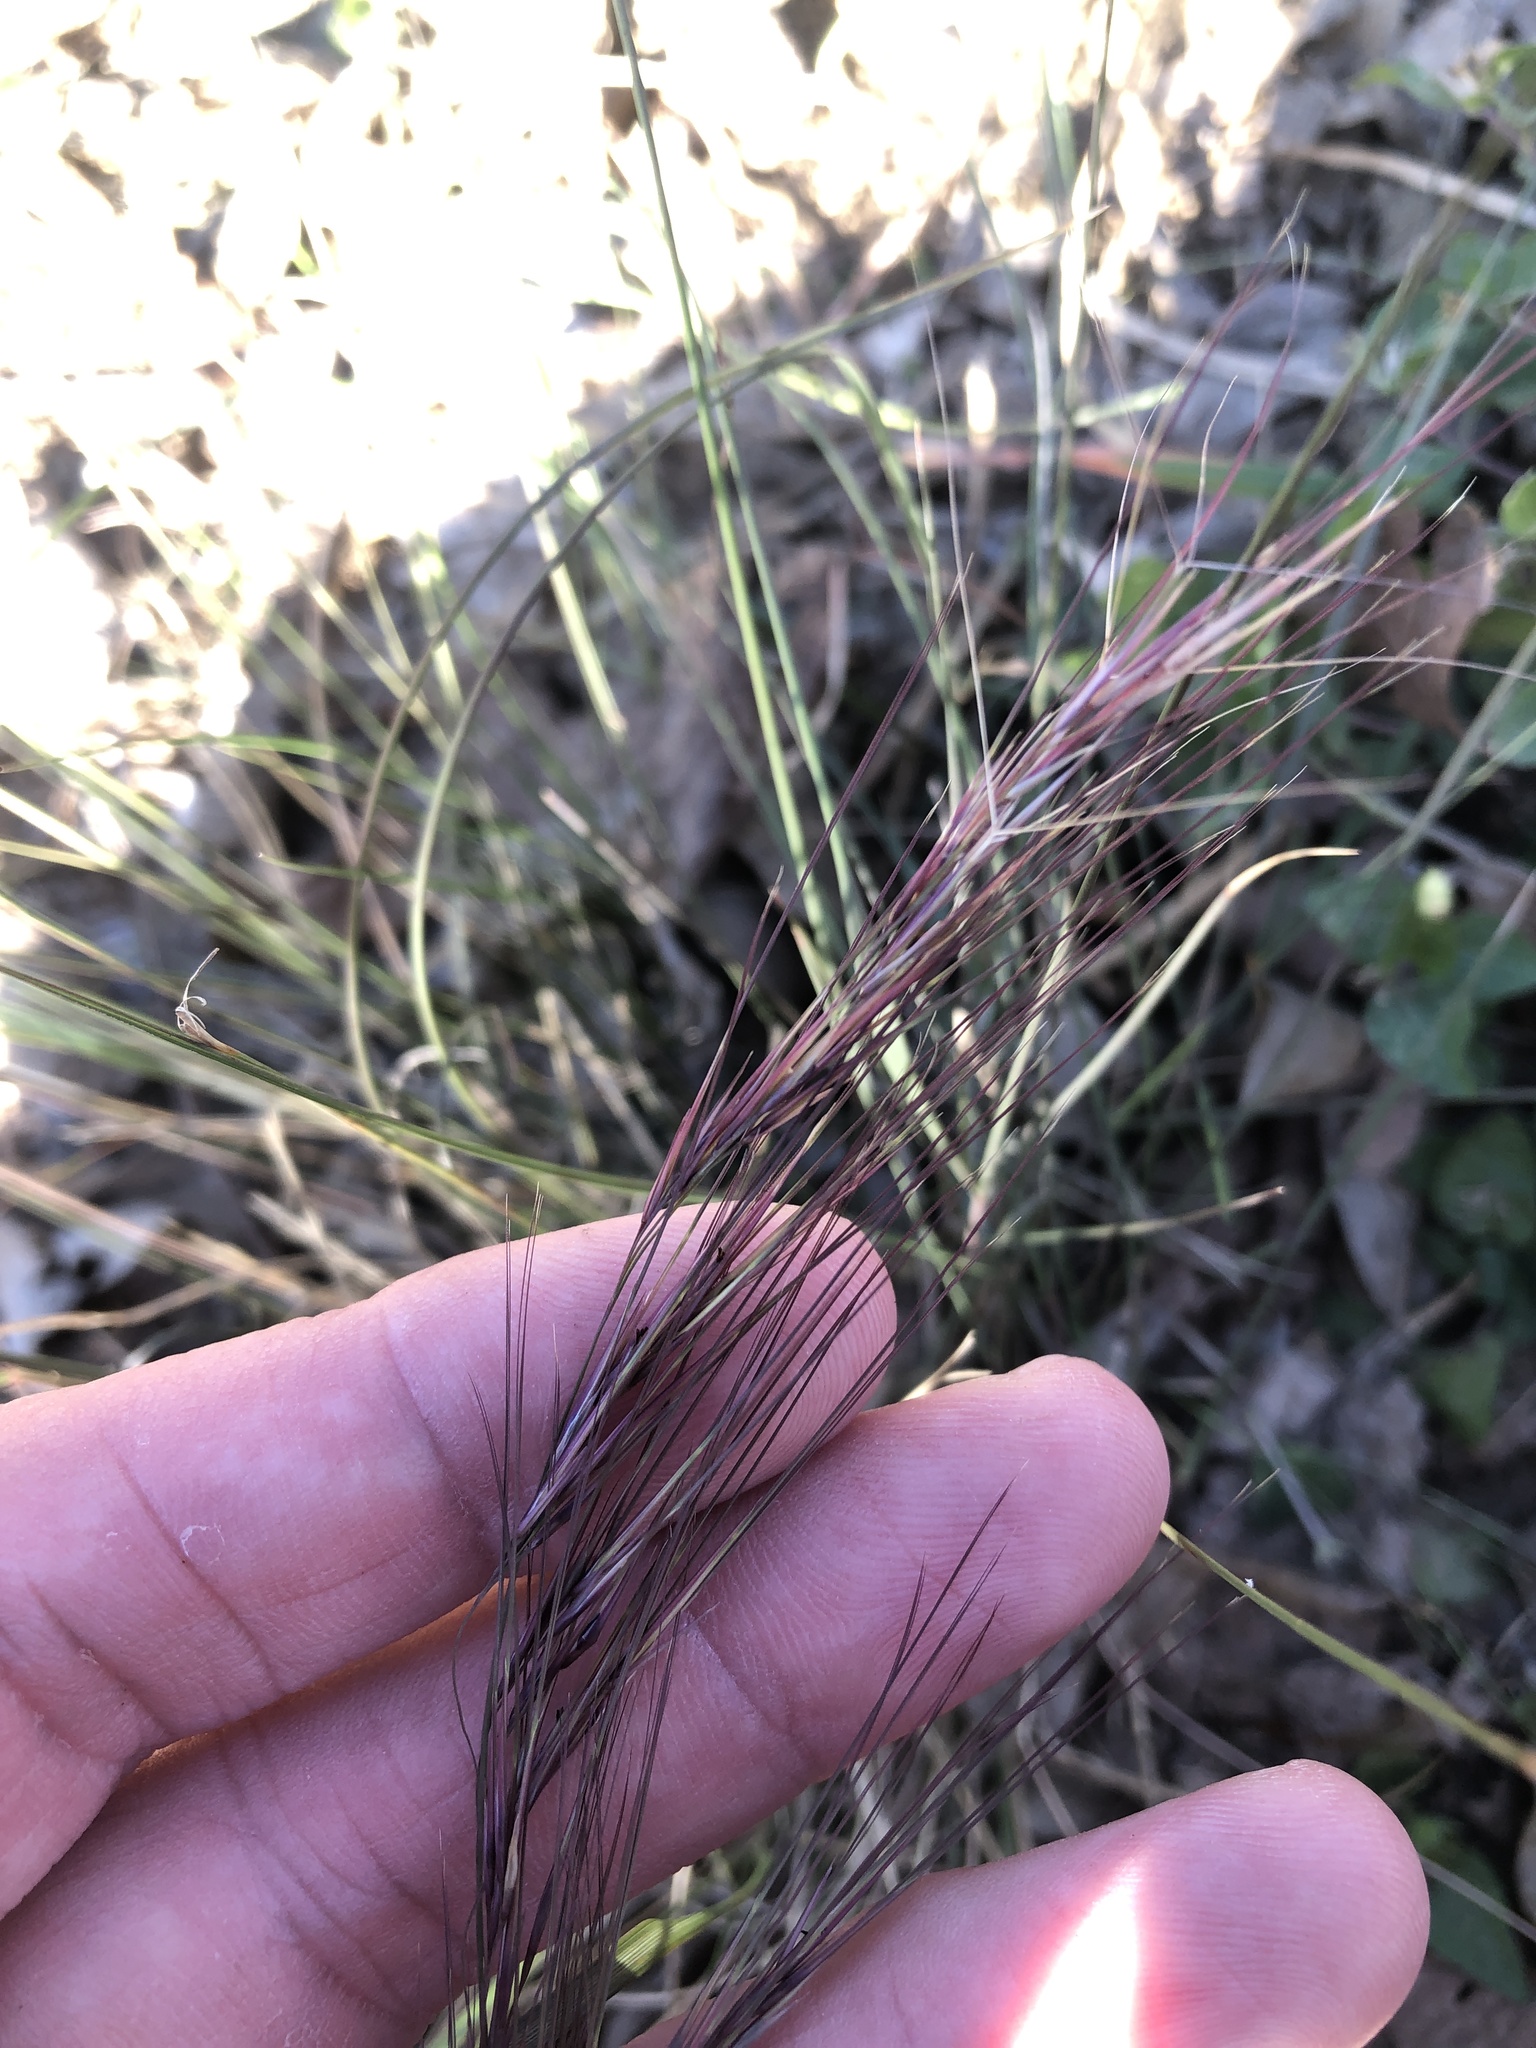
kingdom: Plantae
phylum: Tracheophyta
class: Liliopsida
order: Poales
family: Poaceae
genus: Aristida
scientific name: Aristida purpurea
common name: Purple threeawn
